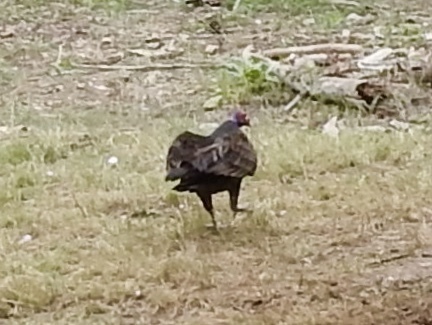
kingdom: Animalia
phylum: Chordata
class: Aves
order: Accipitriformes
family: Cathartidae
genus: Cathartes
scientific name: Cathartes aura
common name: Turkey vulture
